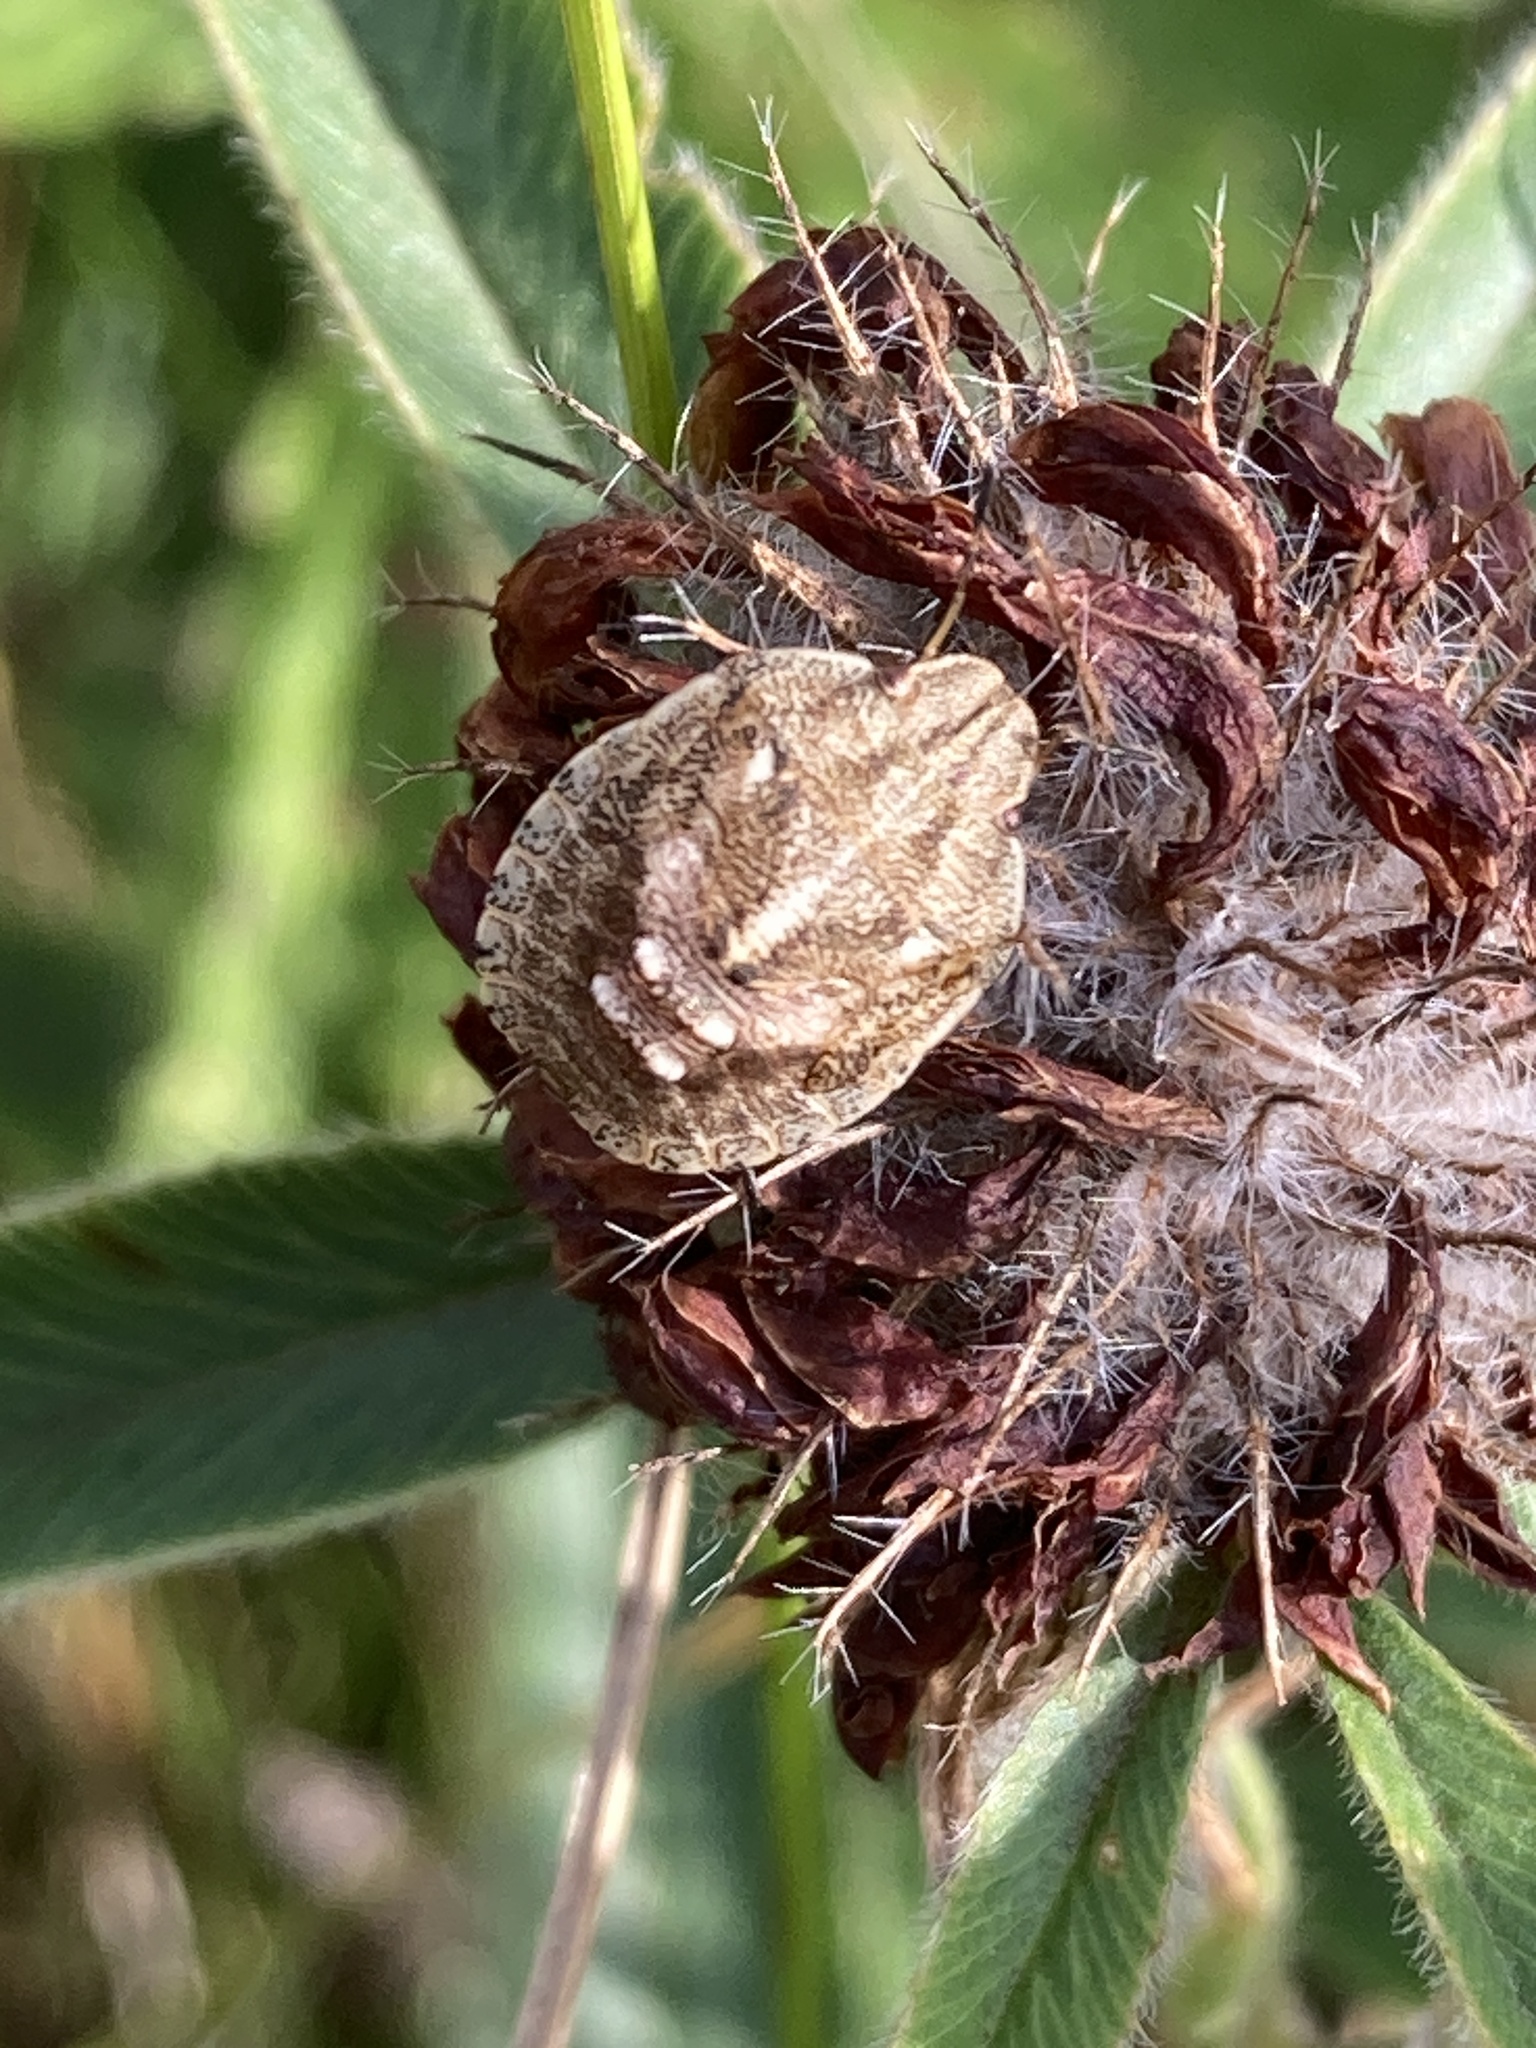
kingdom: Animalia
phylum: Arthropoda
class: Insecta
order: Hemiptera
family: Scutelleridae
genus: Eurygaster
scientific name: Eurygaster testudinaria
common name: Tortoise bug
